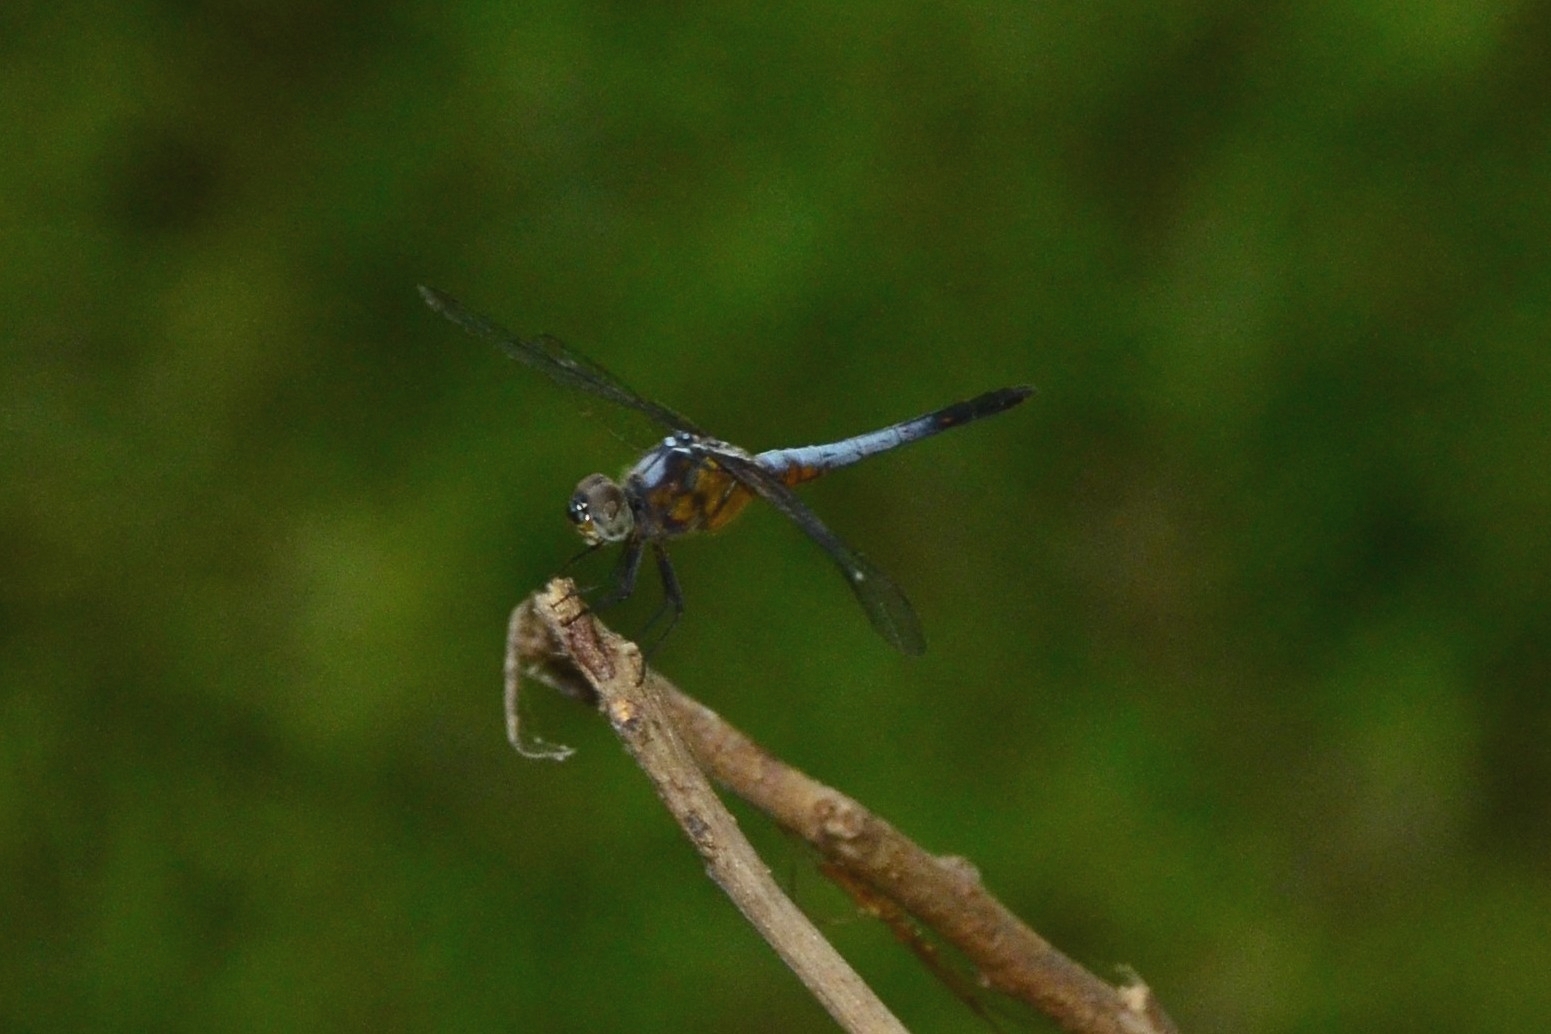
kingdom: Animalia
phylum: Arthropoda
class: Insecta
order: Odonata
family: Libellulidae
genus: Brachydiplax
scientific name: Brachydiplax chalybea
